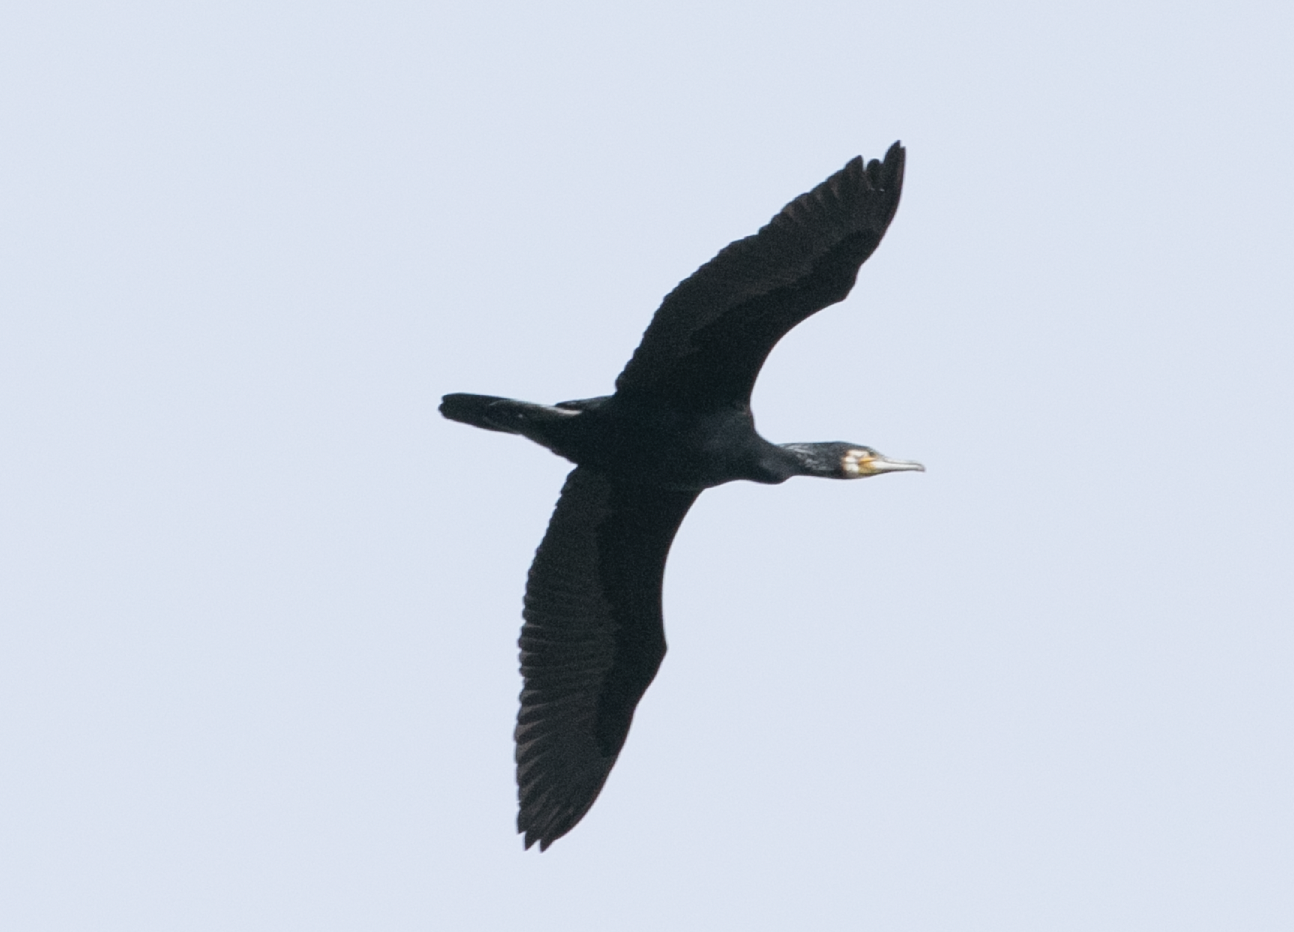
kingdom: Animalia
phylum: Chordata
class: Aves
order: Suliformes
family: Phalacrocoracidae
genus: Phalacrocorax
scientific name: Phalacrocorax carbo
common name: Great cormorant
